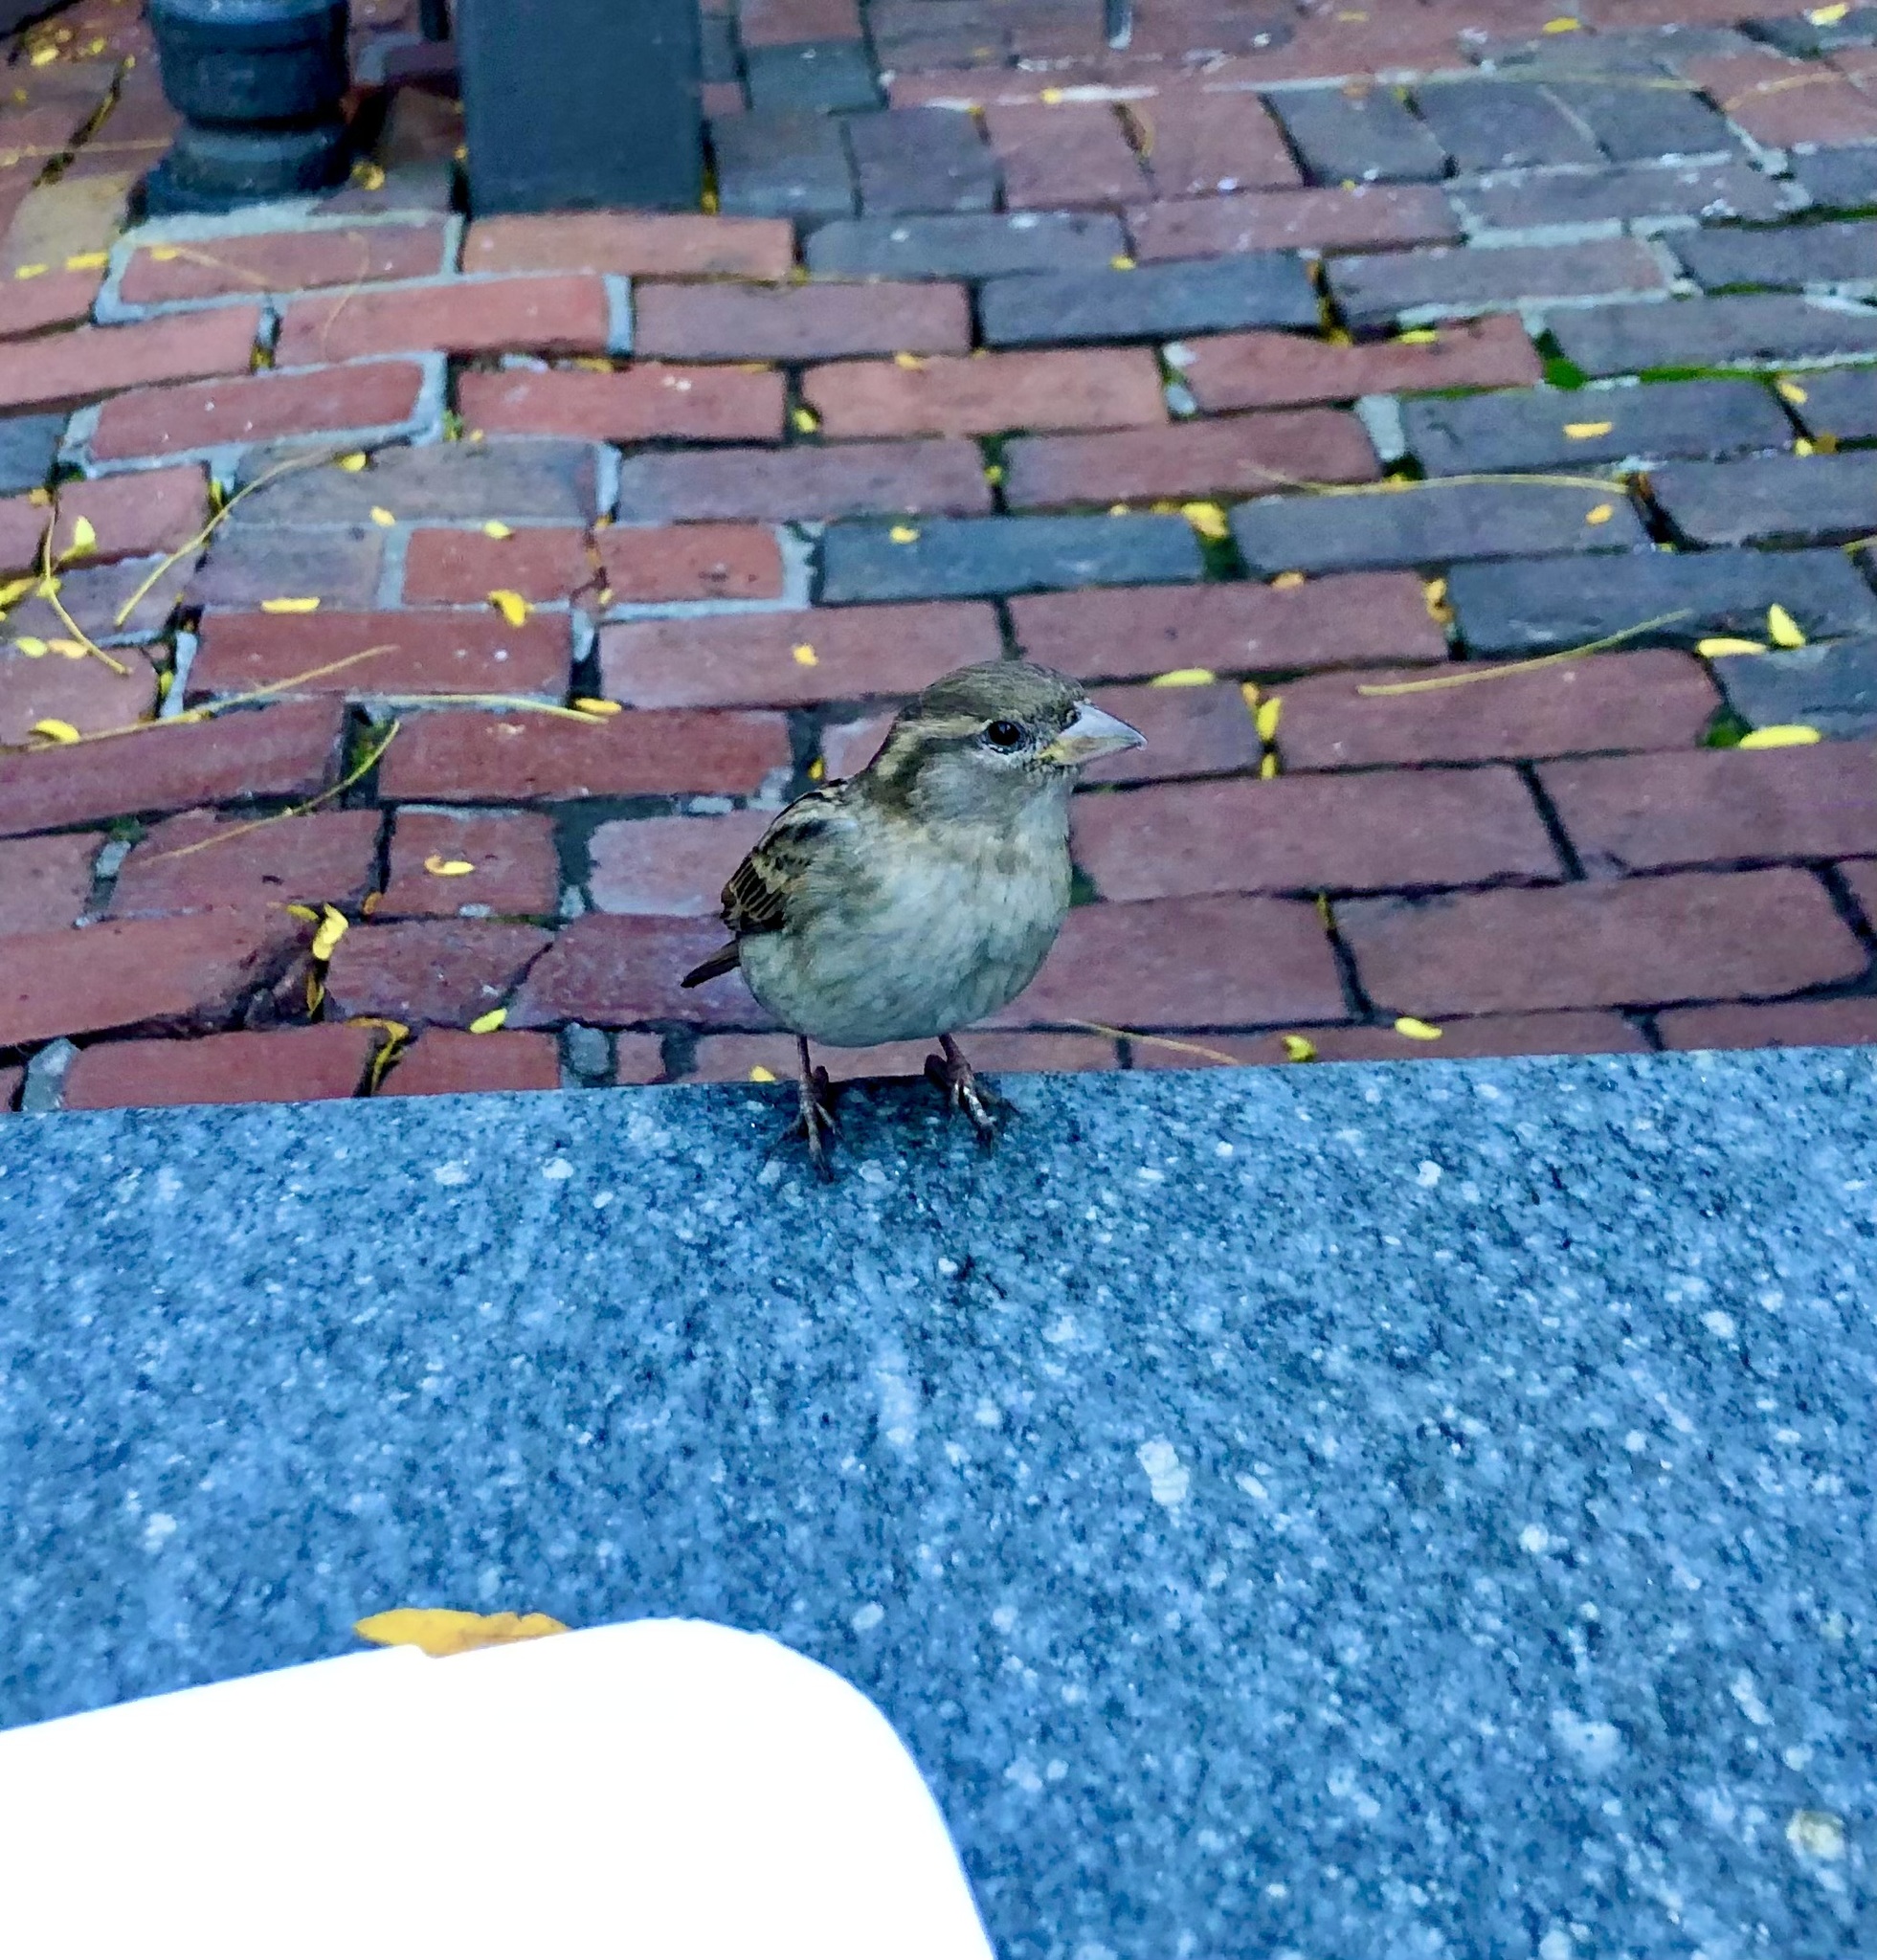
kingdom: Animalia
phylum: Chordata
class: Aves
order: Passeriformes
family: Passeridae
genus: Passer
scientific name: Passer domesticus
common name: House sparrow
